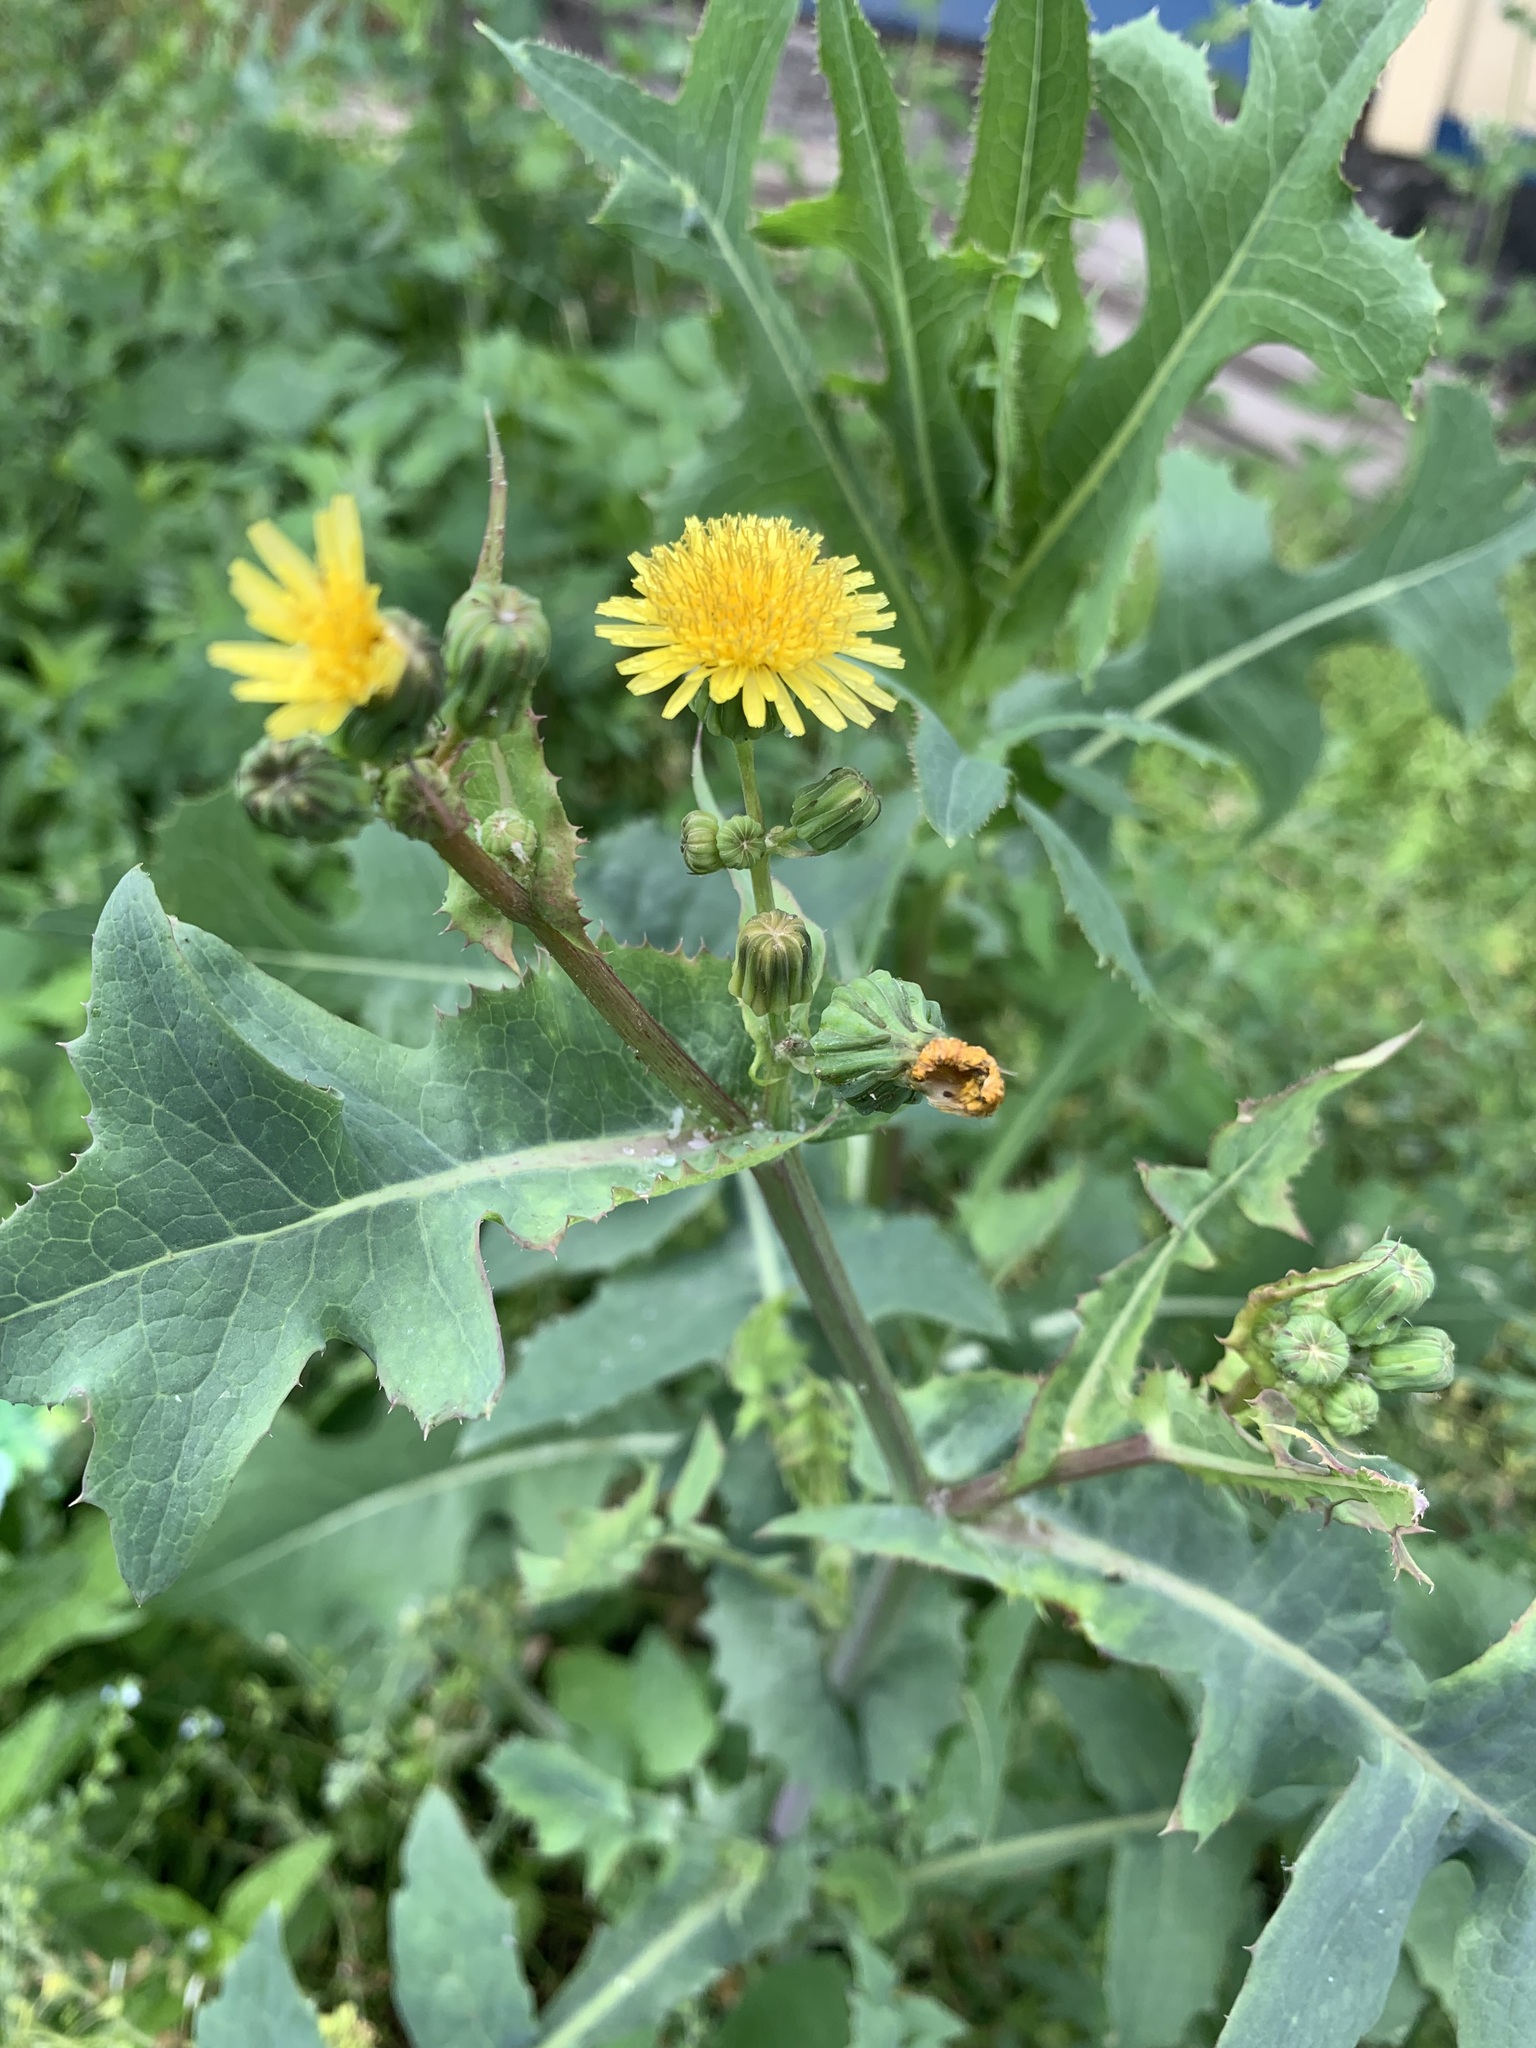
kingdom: Plantae
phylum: Tracheophyta
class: Magnoliopsida
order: Asterales
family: Asteraceae
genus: Sonchus
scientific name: Sonchus oleraceus
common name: Common sowthistle
